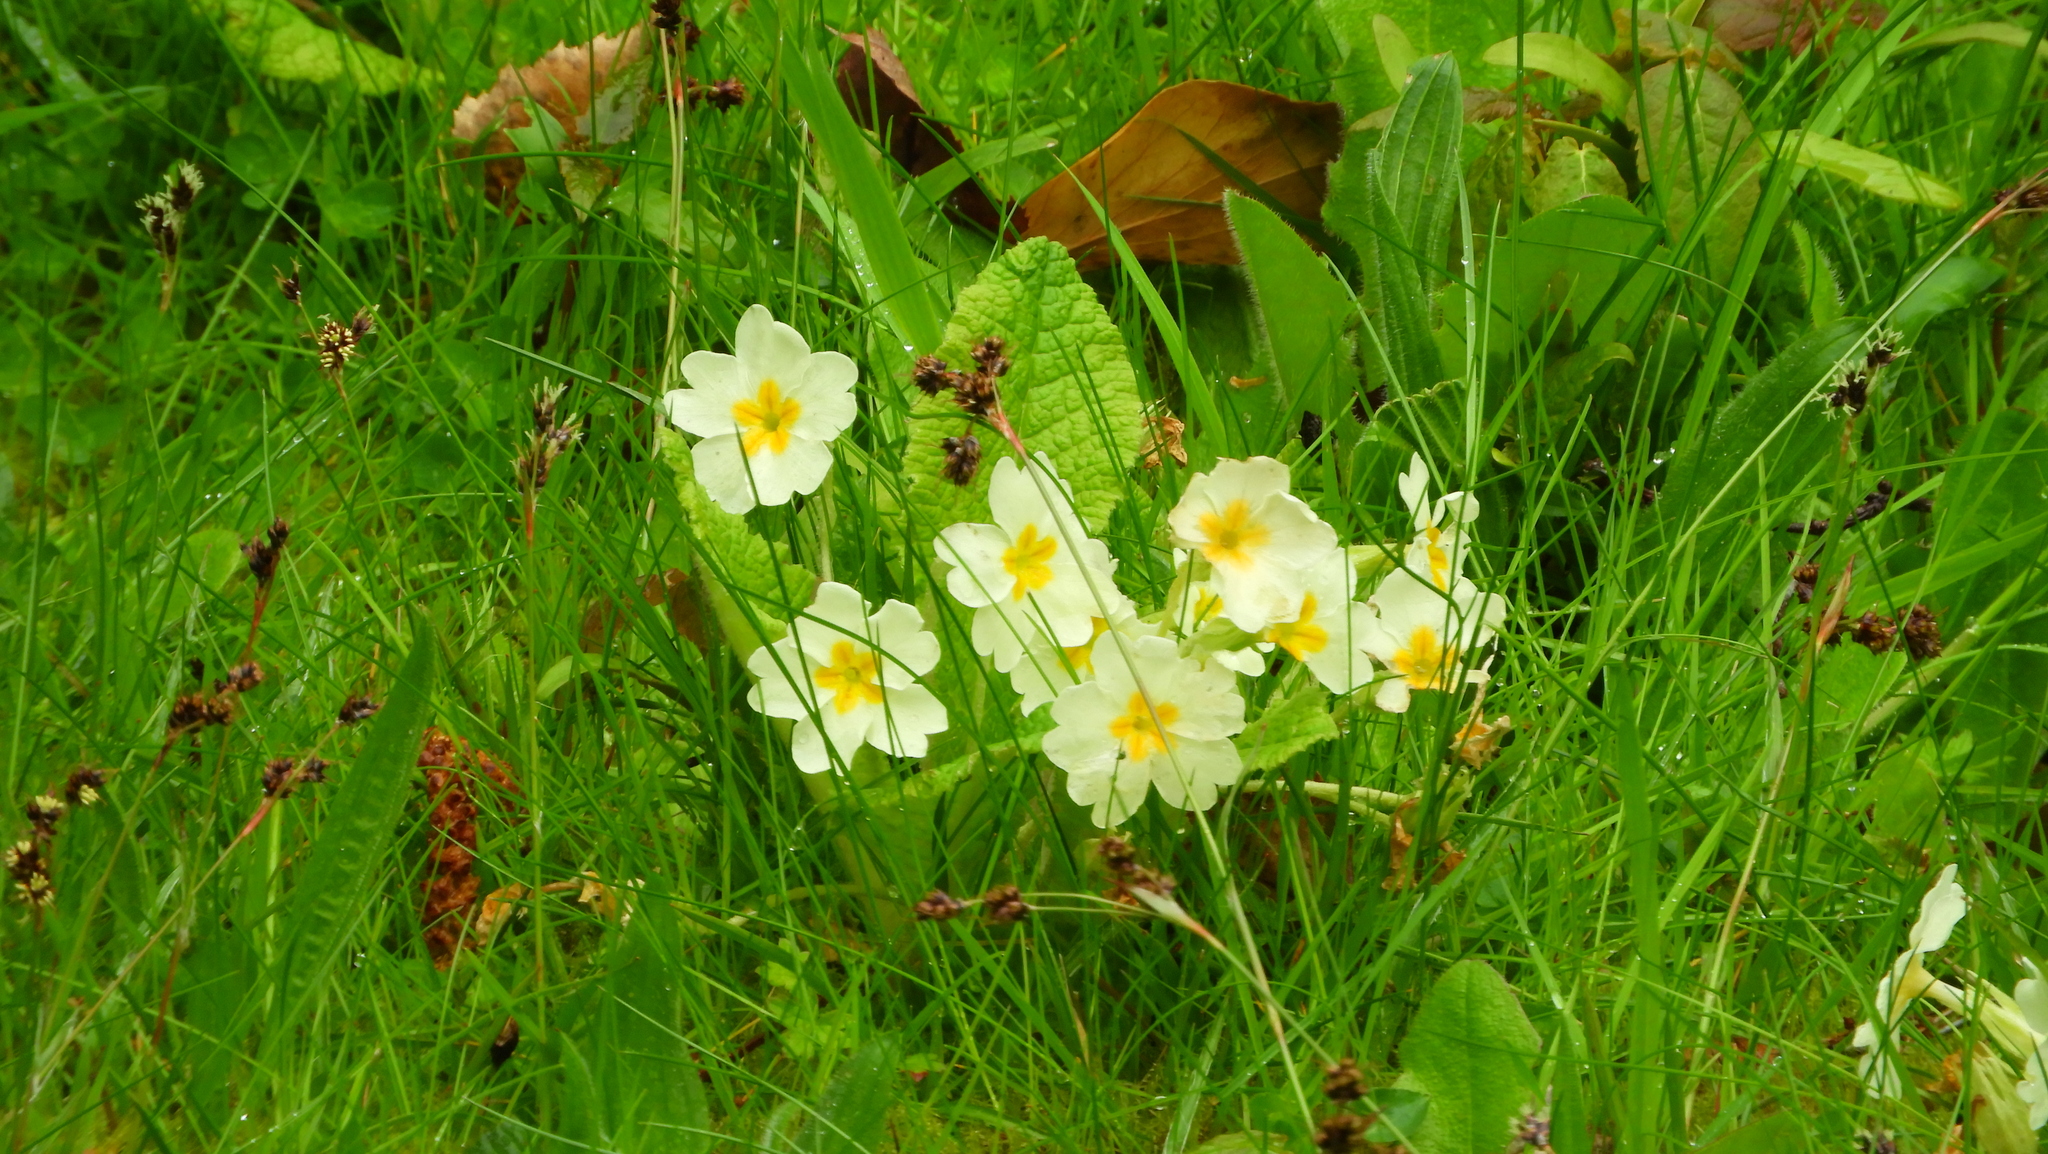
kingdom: Plantae
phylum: Tracheophyta
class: Magnoliopsida
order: Ericales
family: Primulaceae
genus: Primula
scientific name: Primula vulgaris
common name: Primrose
